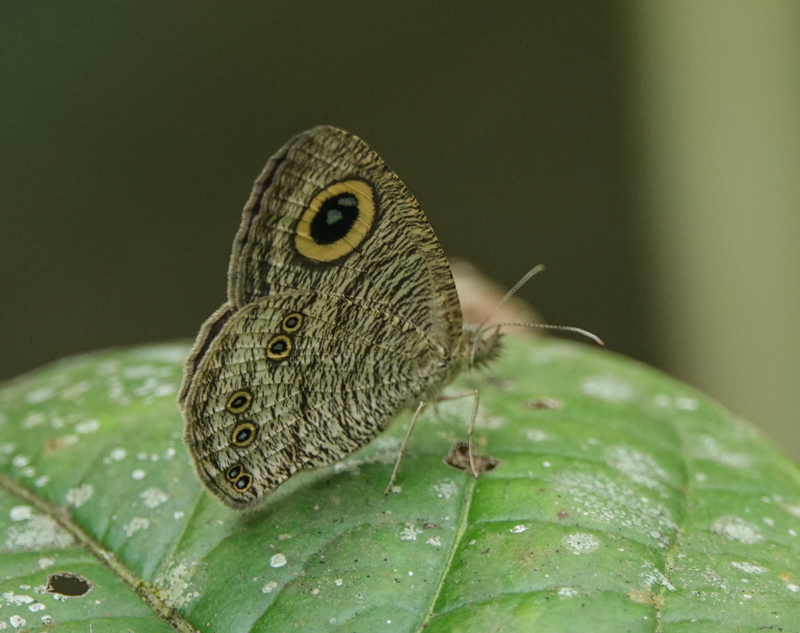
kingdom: Animalia
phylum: Arthropoda
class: Insecta
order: Lepidoptera
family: Nymphalidae
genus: Ypthima
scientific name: Ypthima baldus
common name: Common five-ring
